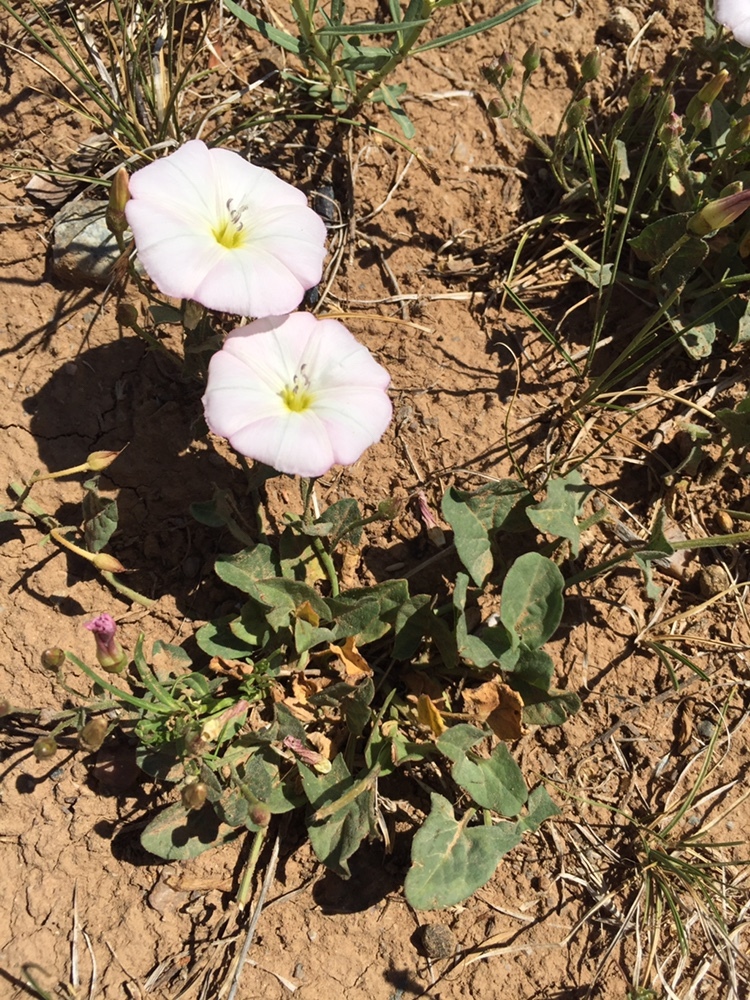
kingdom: Plantae
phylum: Tracheophyta
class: Magnoliopsida
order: Solanales
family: Convolvulaceae
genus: Convolvulus
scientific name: Convolvulus arvensis
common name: Field bindweed
